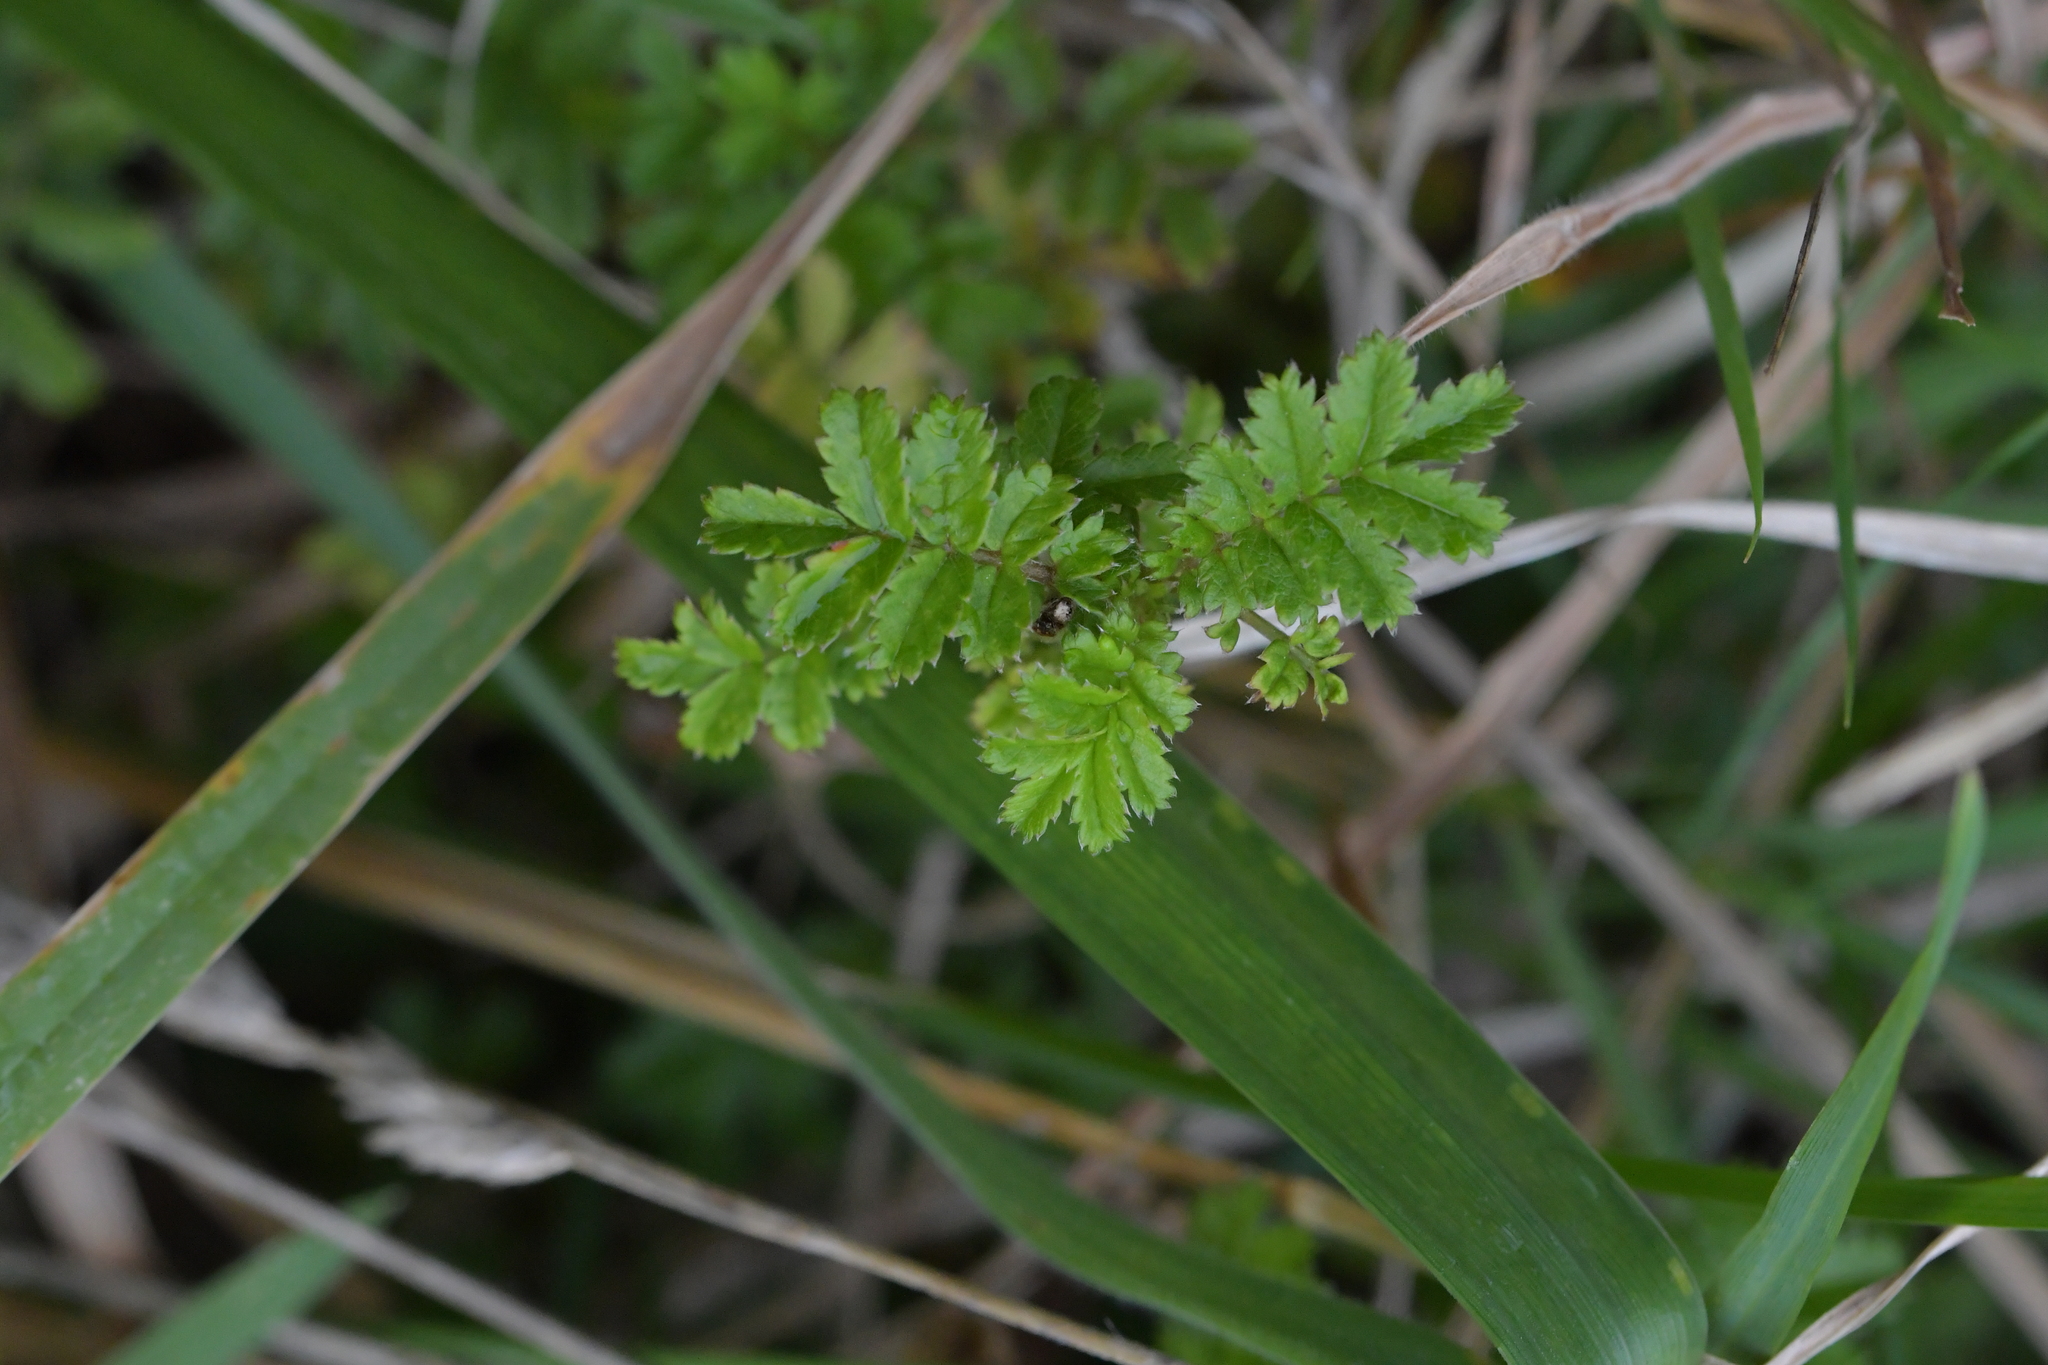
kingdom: Plantae
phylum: Tracheophyta
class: Magnoliopsida
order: Rosales
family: Rosaceae
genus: Acaena
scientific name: Acaena novae-zelandiae
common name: Pirri-pirri-bur
